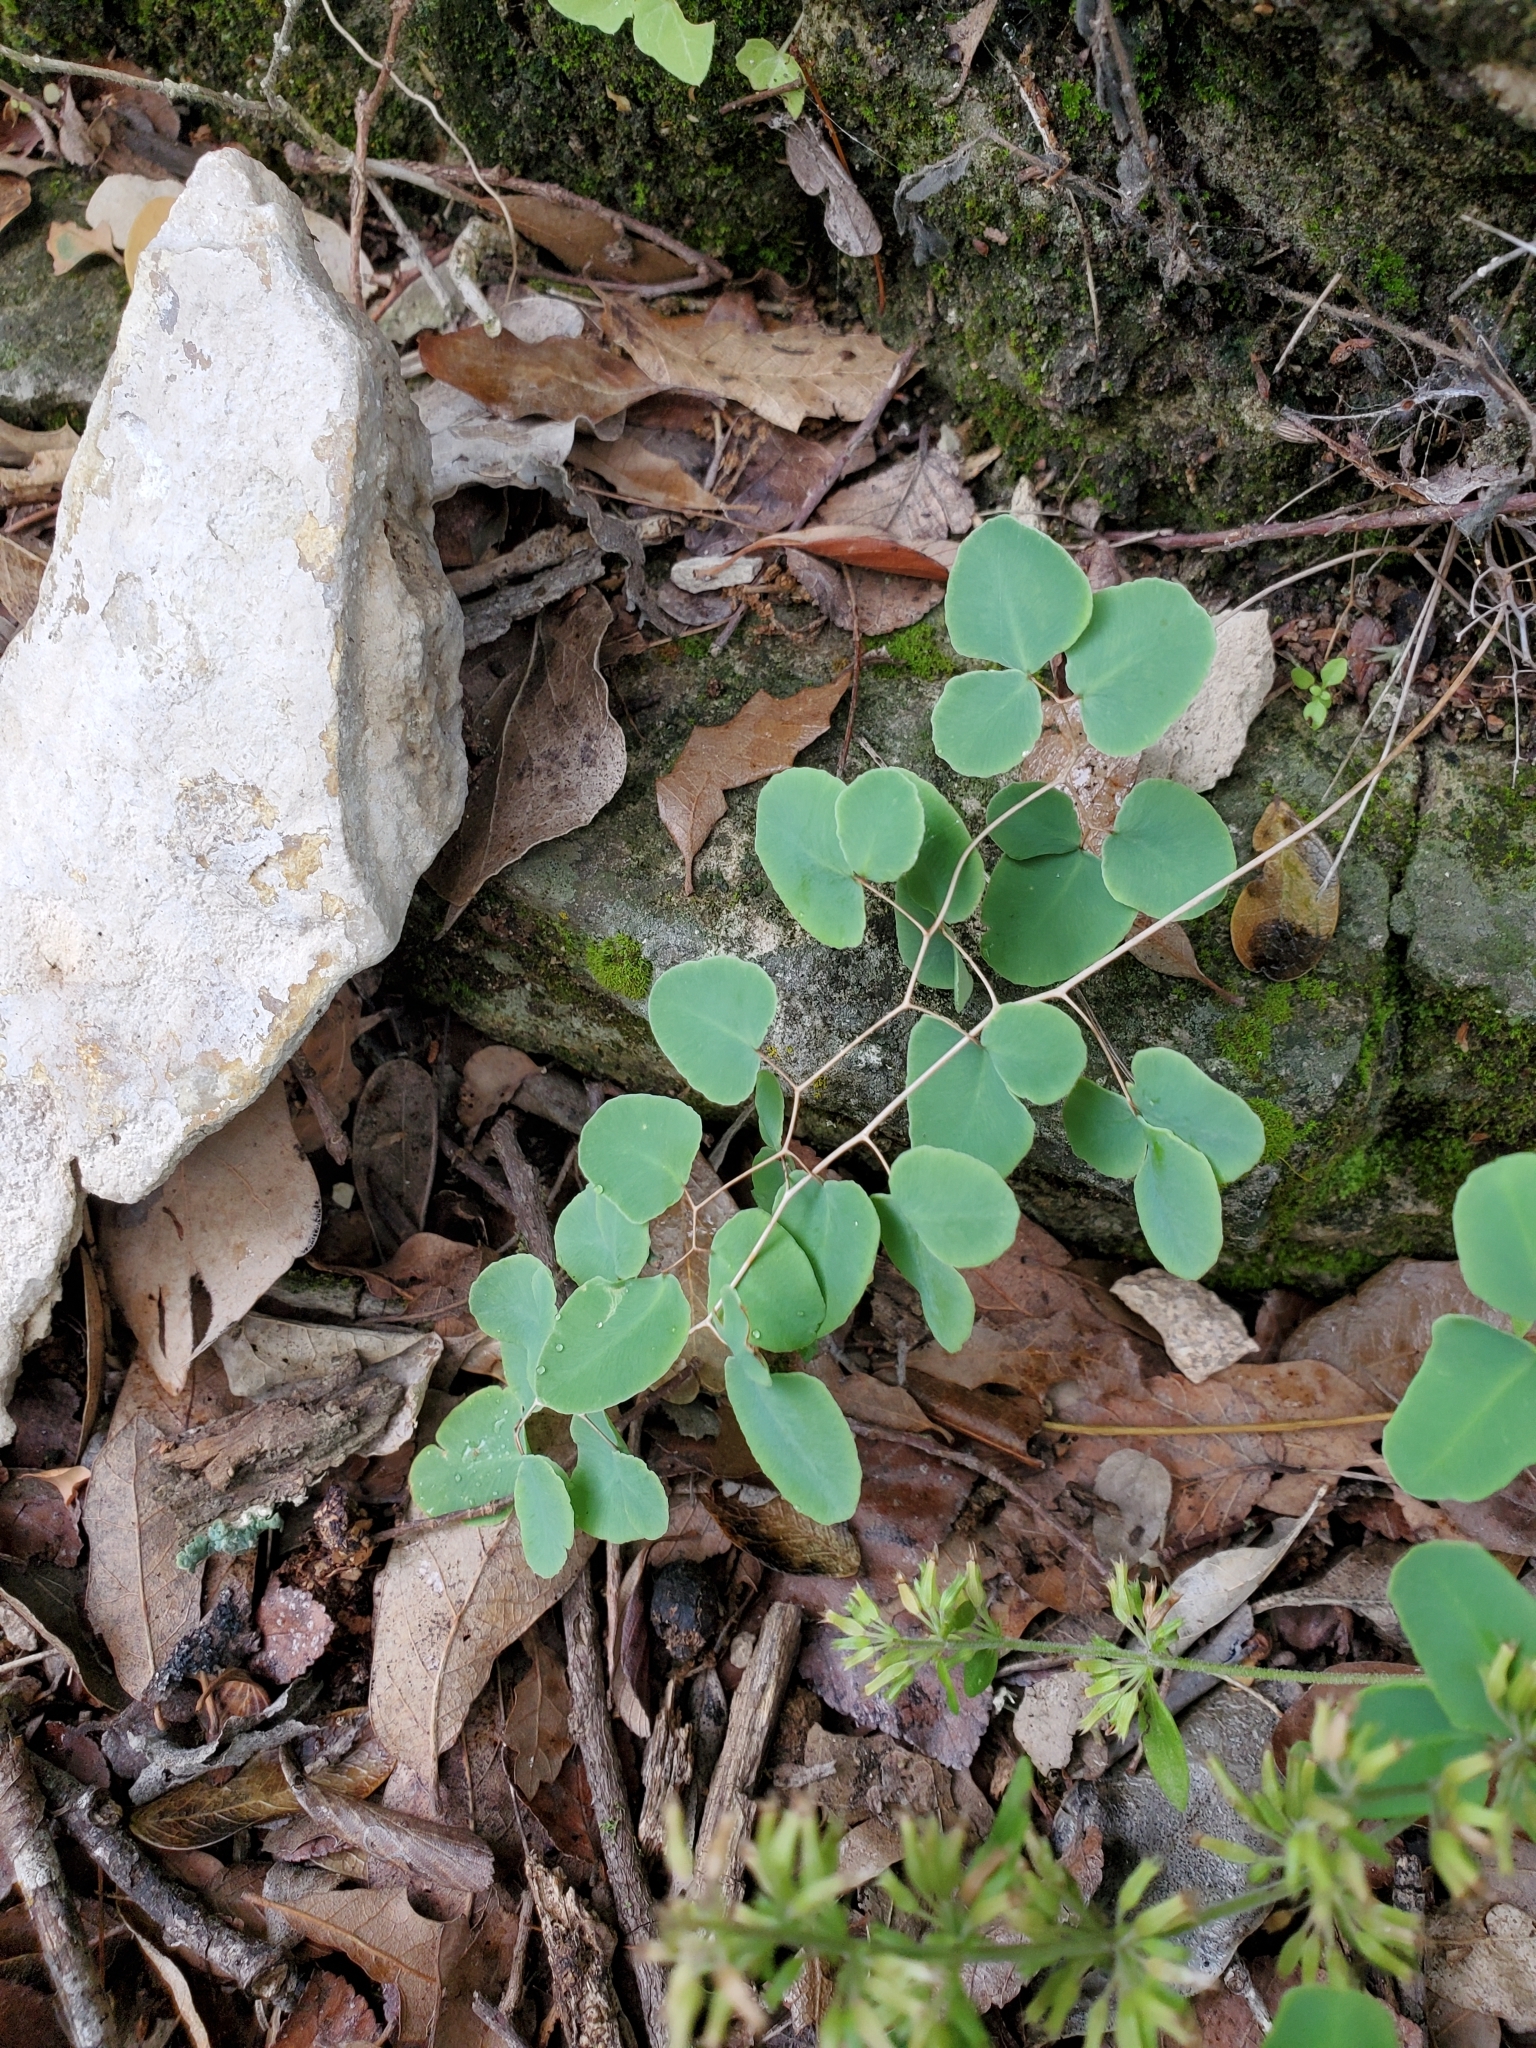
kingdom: Plantae
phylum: Tracheophyta
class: Polypodiopsida
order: Polypodiales
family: Pteridaceae
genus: Pellaea
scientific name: Pellaea ovata
